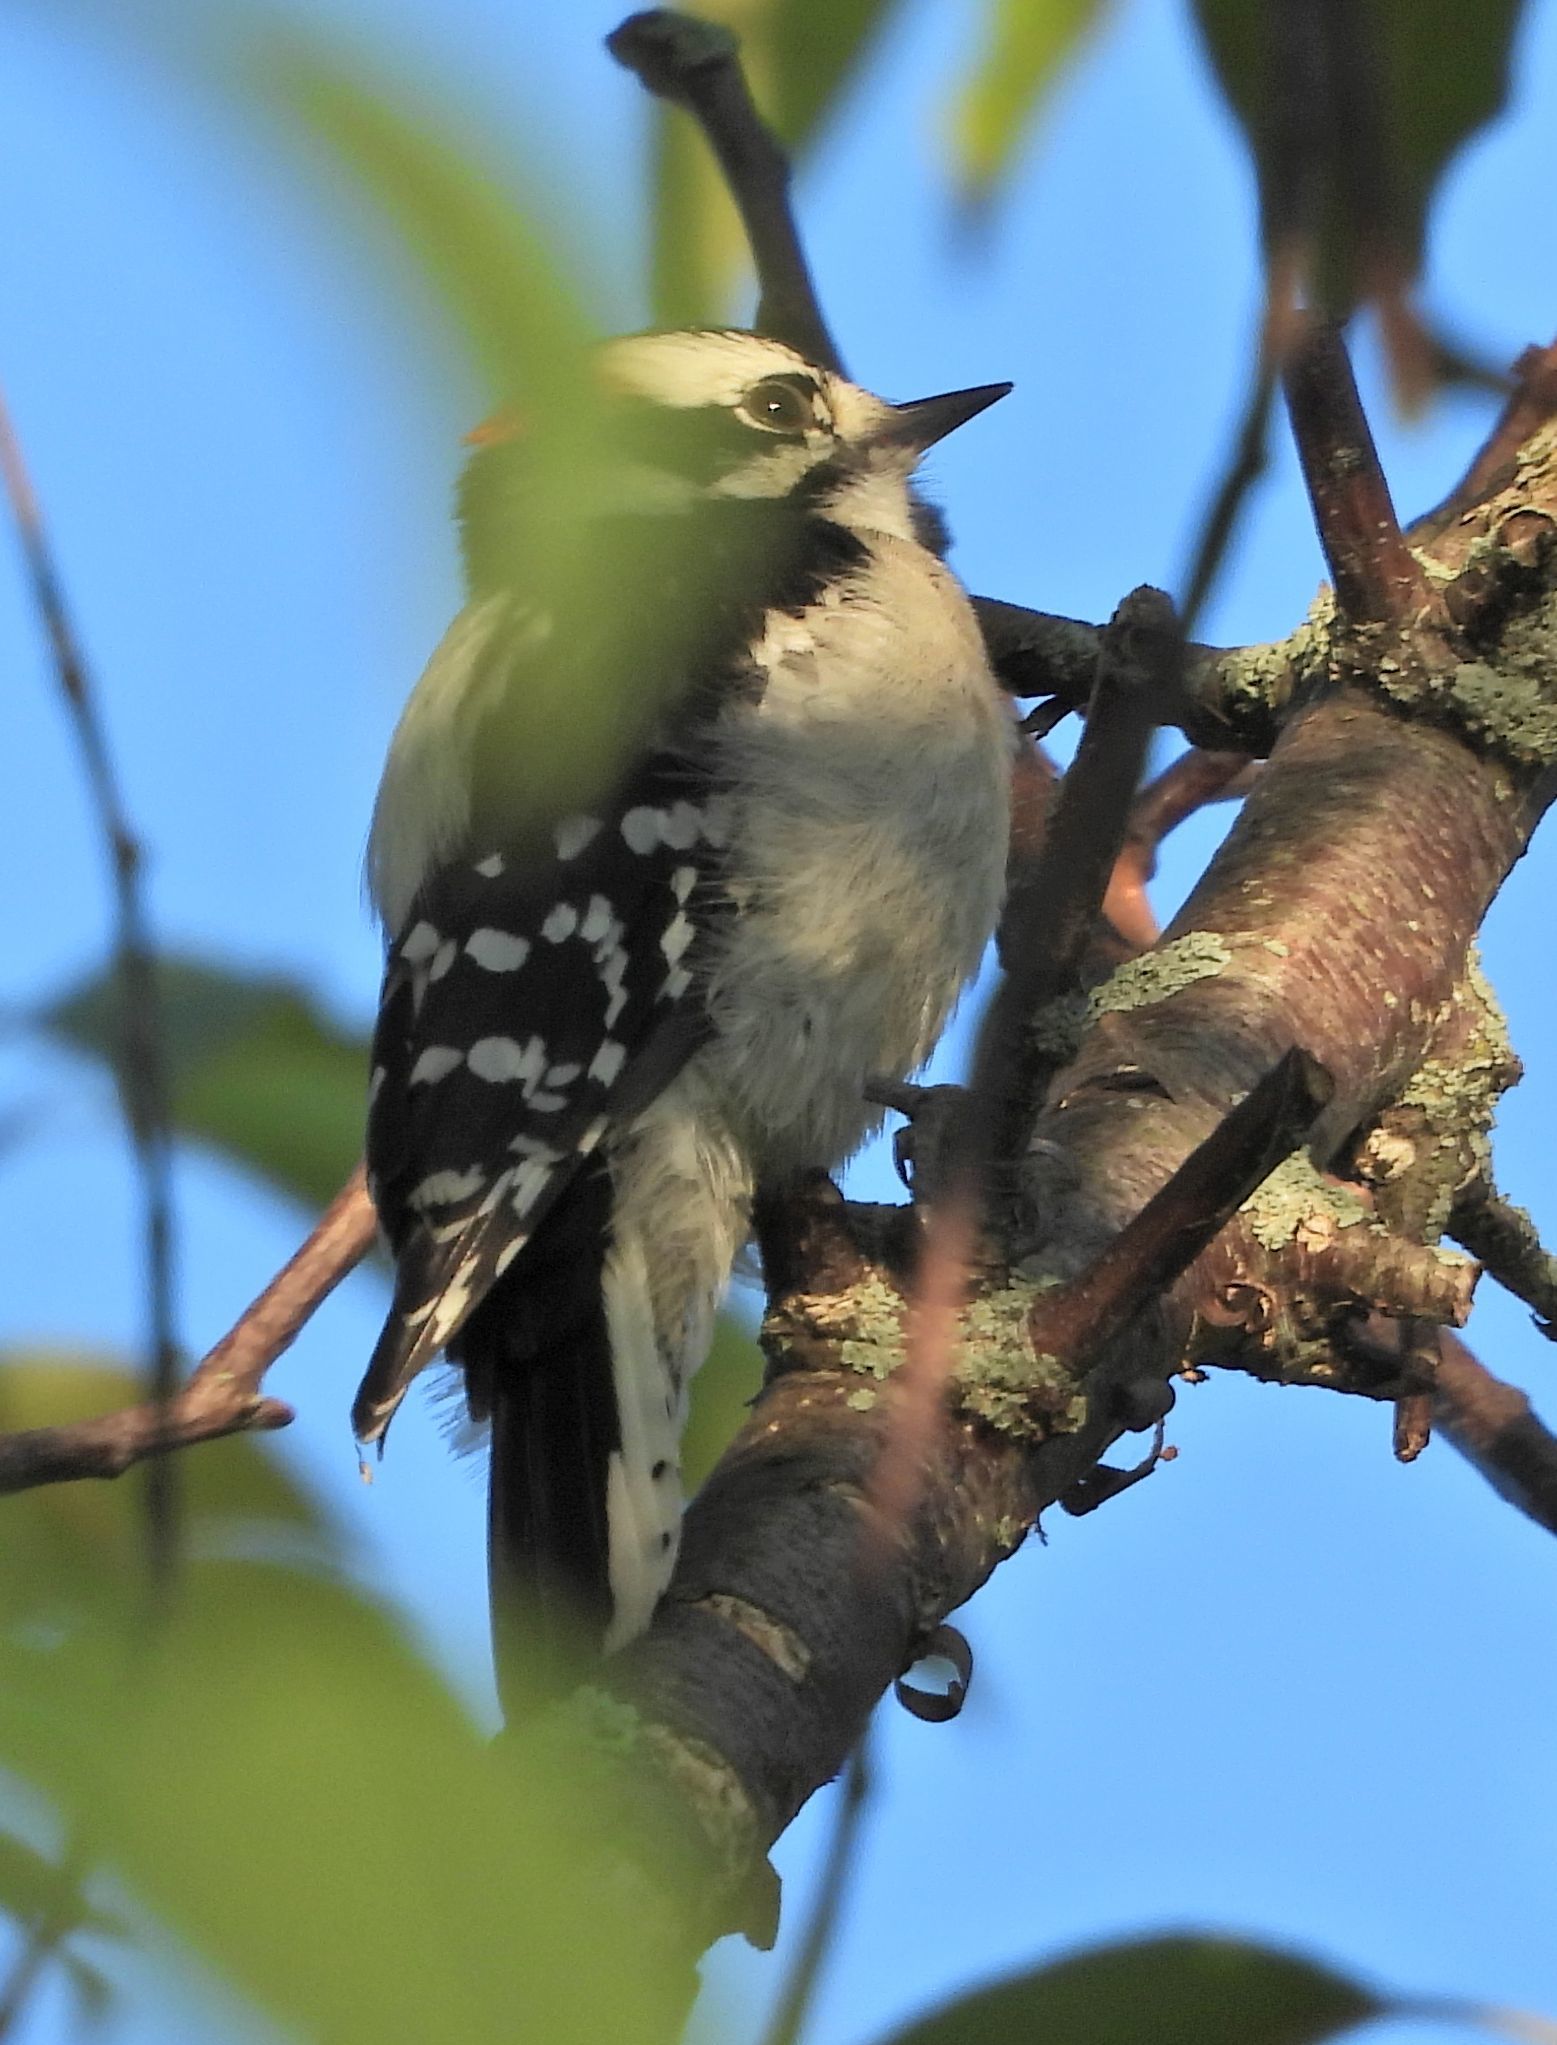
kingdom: Animalia
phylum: Chordata
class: Aves
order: Piciformes
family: Picidae
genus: Dryobates
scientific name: Dryobates pubescens
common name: Downy woodpecker
